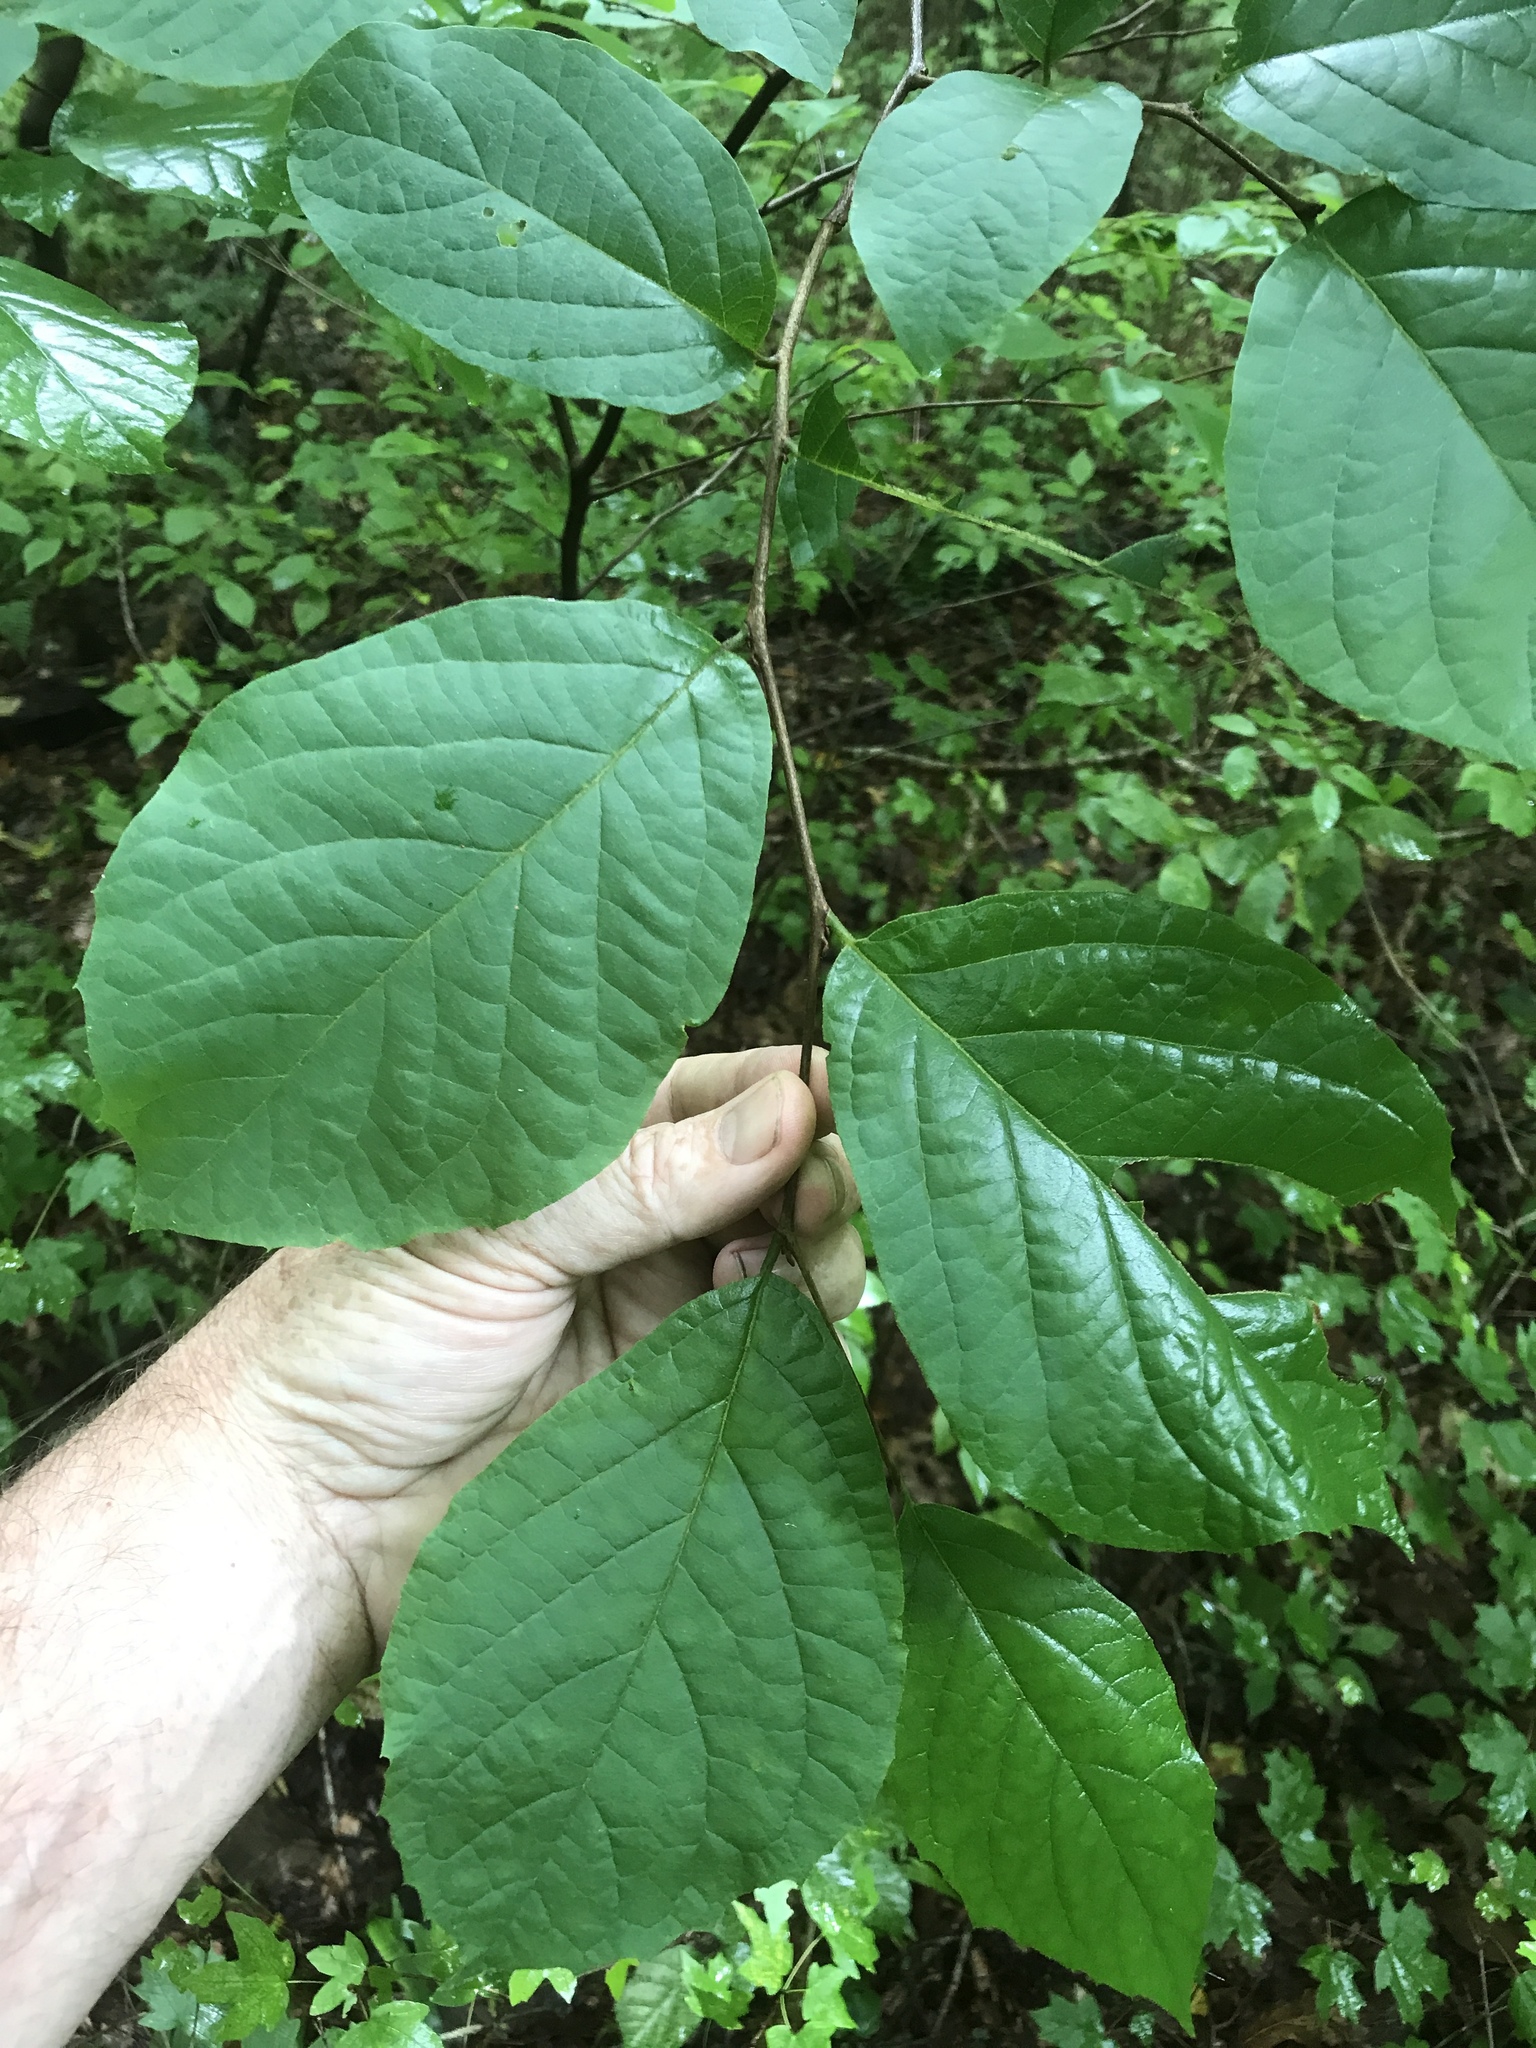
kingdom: Plantae
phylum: Tracheophyta
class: Magnoliopsida
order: Ericales
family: Styracaceae
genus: Styrax
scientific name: Styrax grandifolius
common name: Big-leaf snowbell
